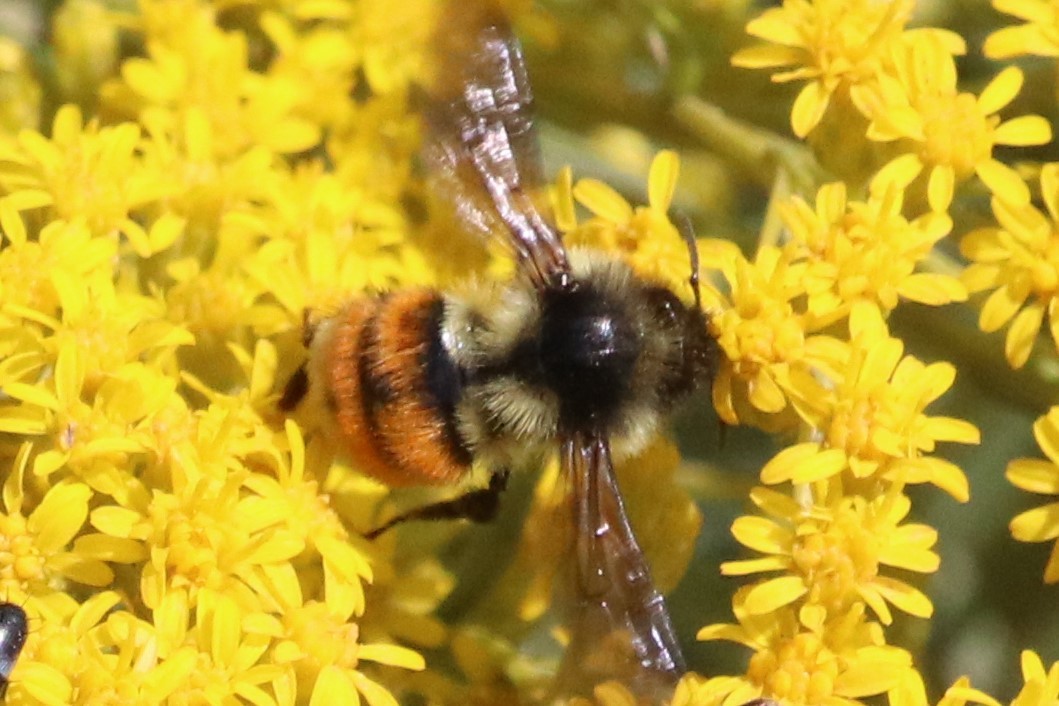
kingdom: Animalia
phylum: Arthropoda
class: Insecta
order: Hymenoptera
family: Apidae
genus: Bombus
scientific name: Bombus ternarius
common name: Tri-colored bumble bee
